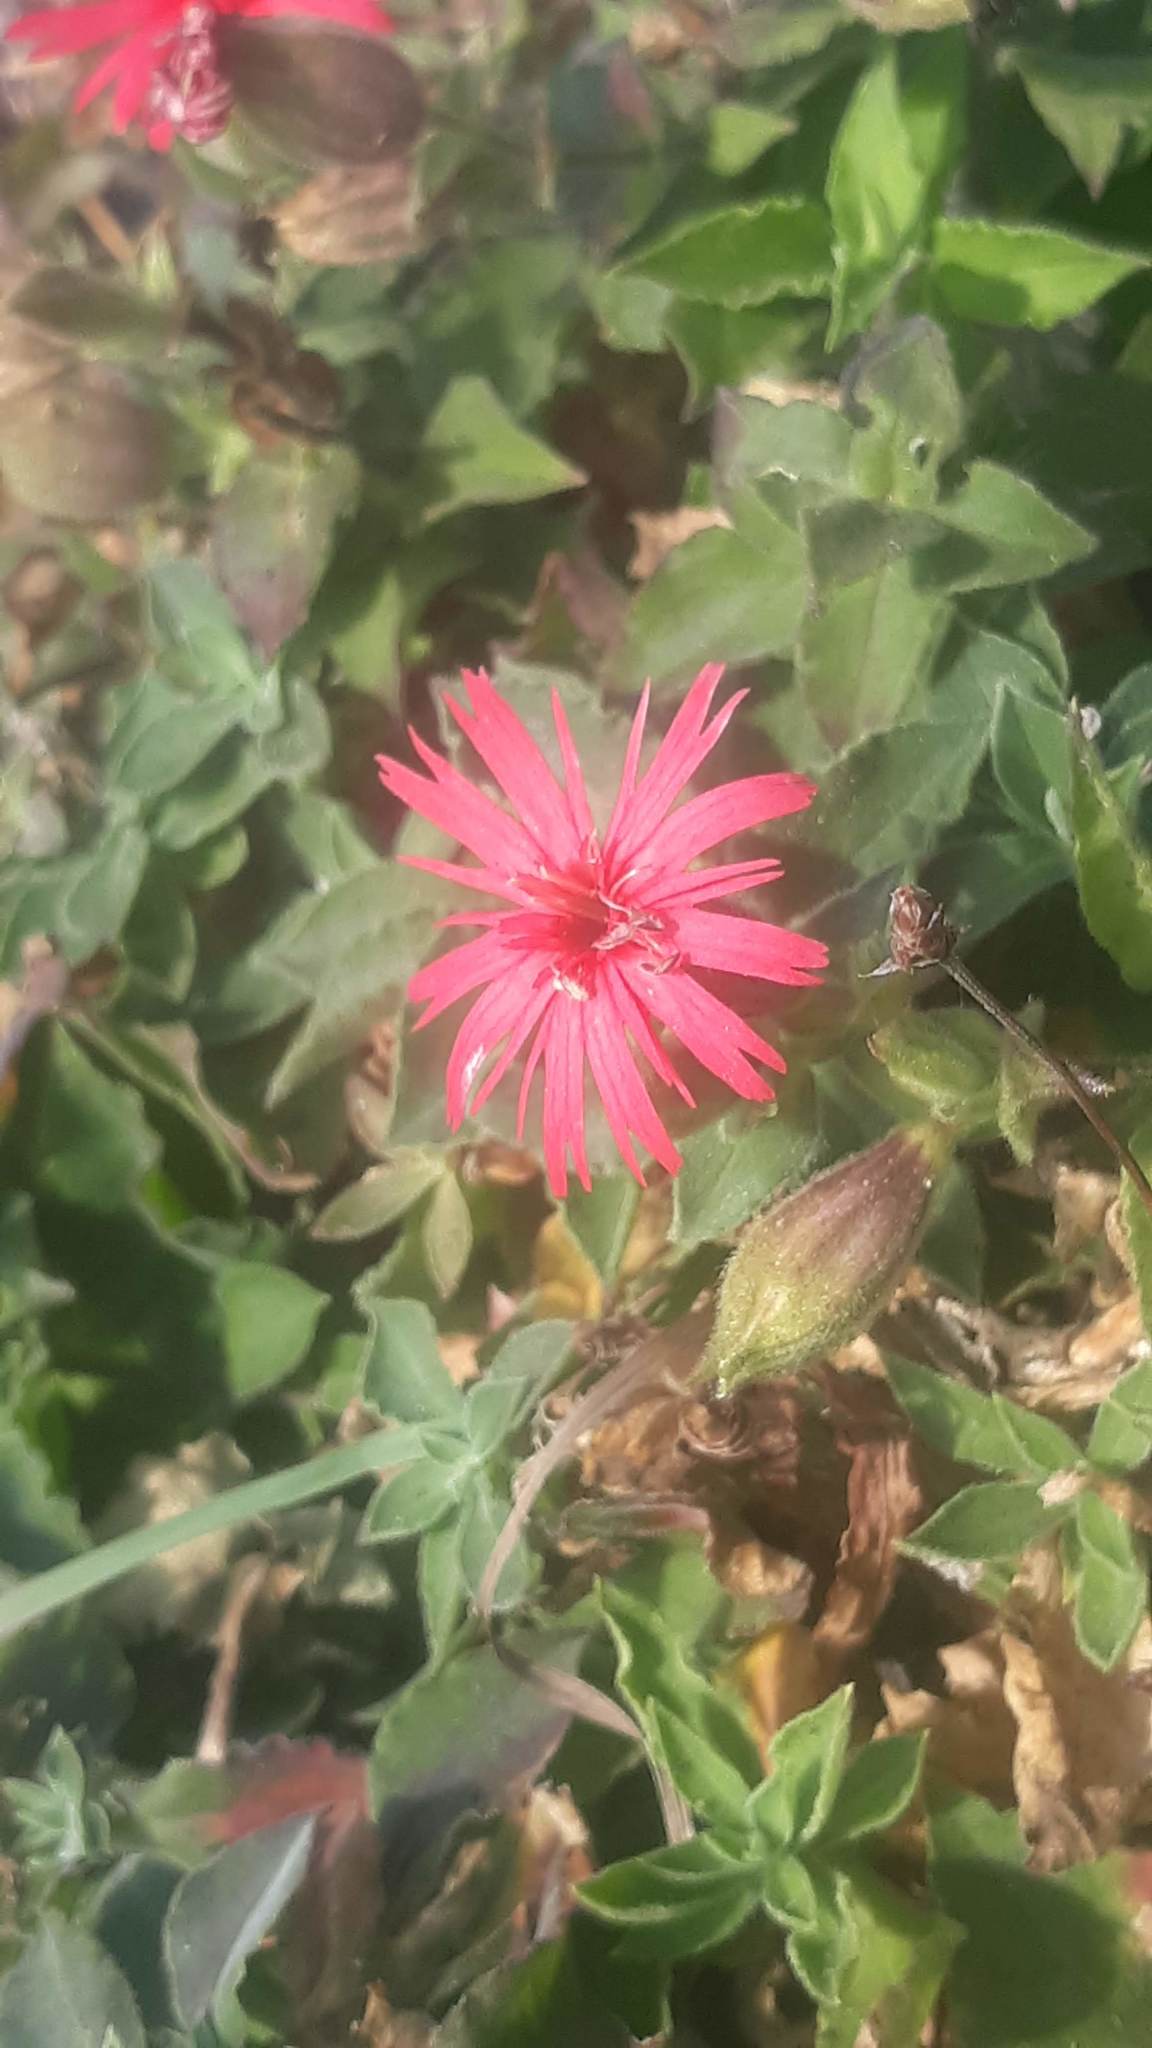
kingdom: Plantae
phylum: Tracheophyta
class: Magnoliopsida
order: Caryophyllales
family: Caryophyllaceae
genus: Silene
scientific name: Silene laciniata
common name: Indian-pink
